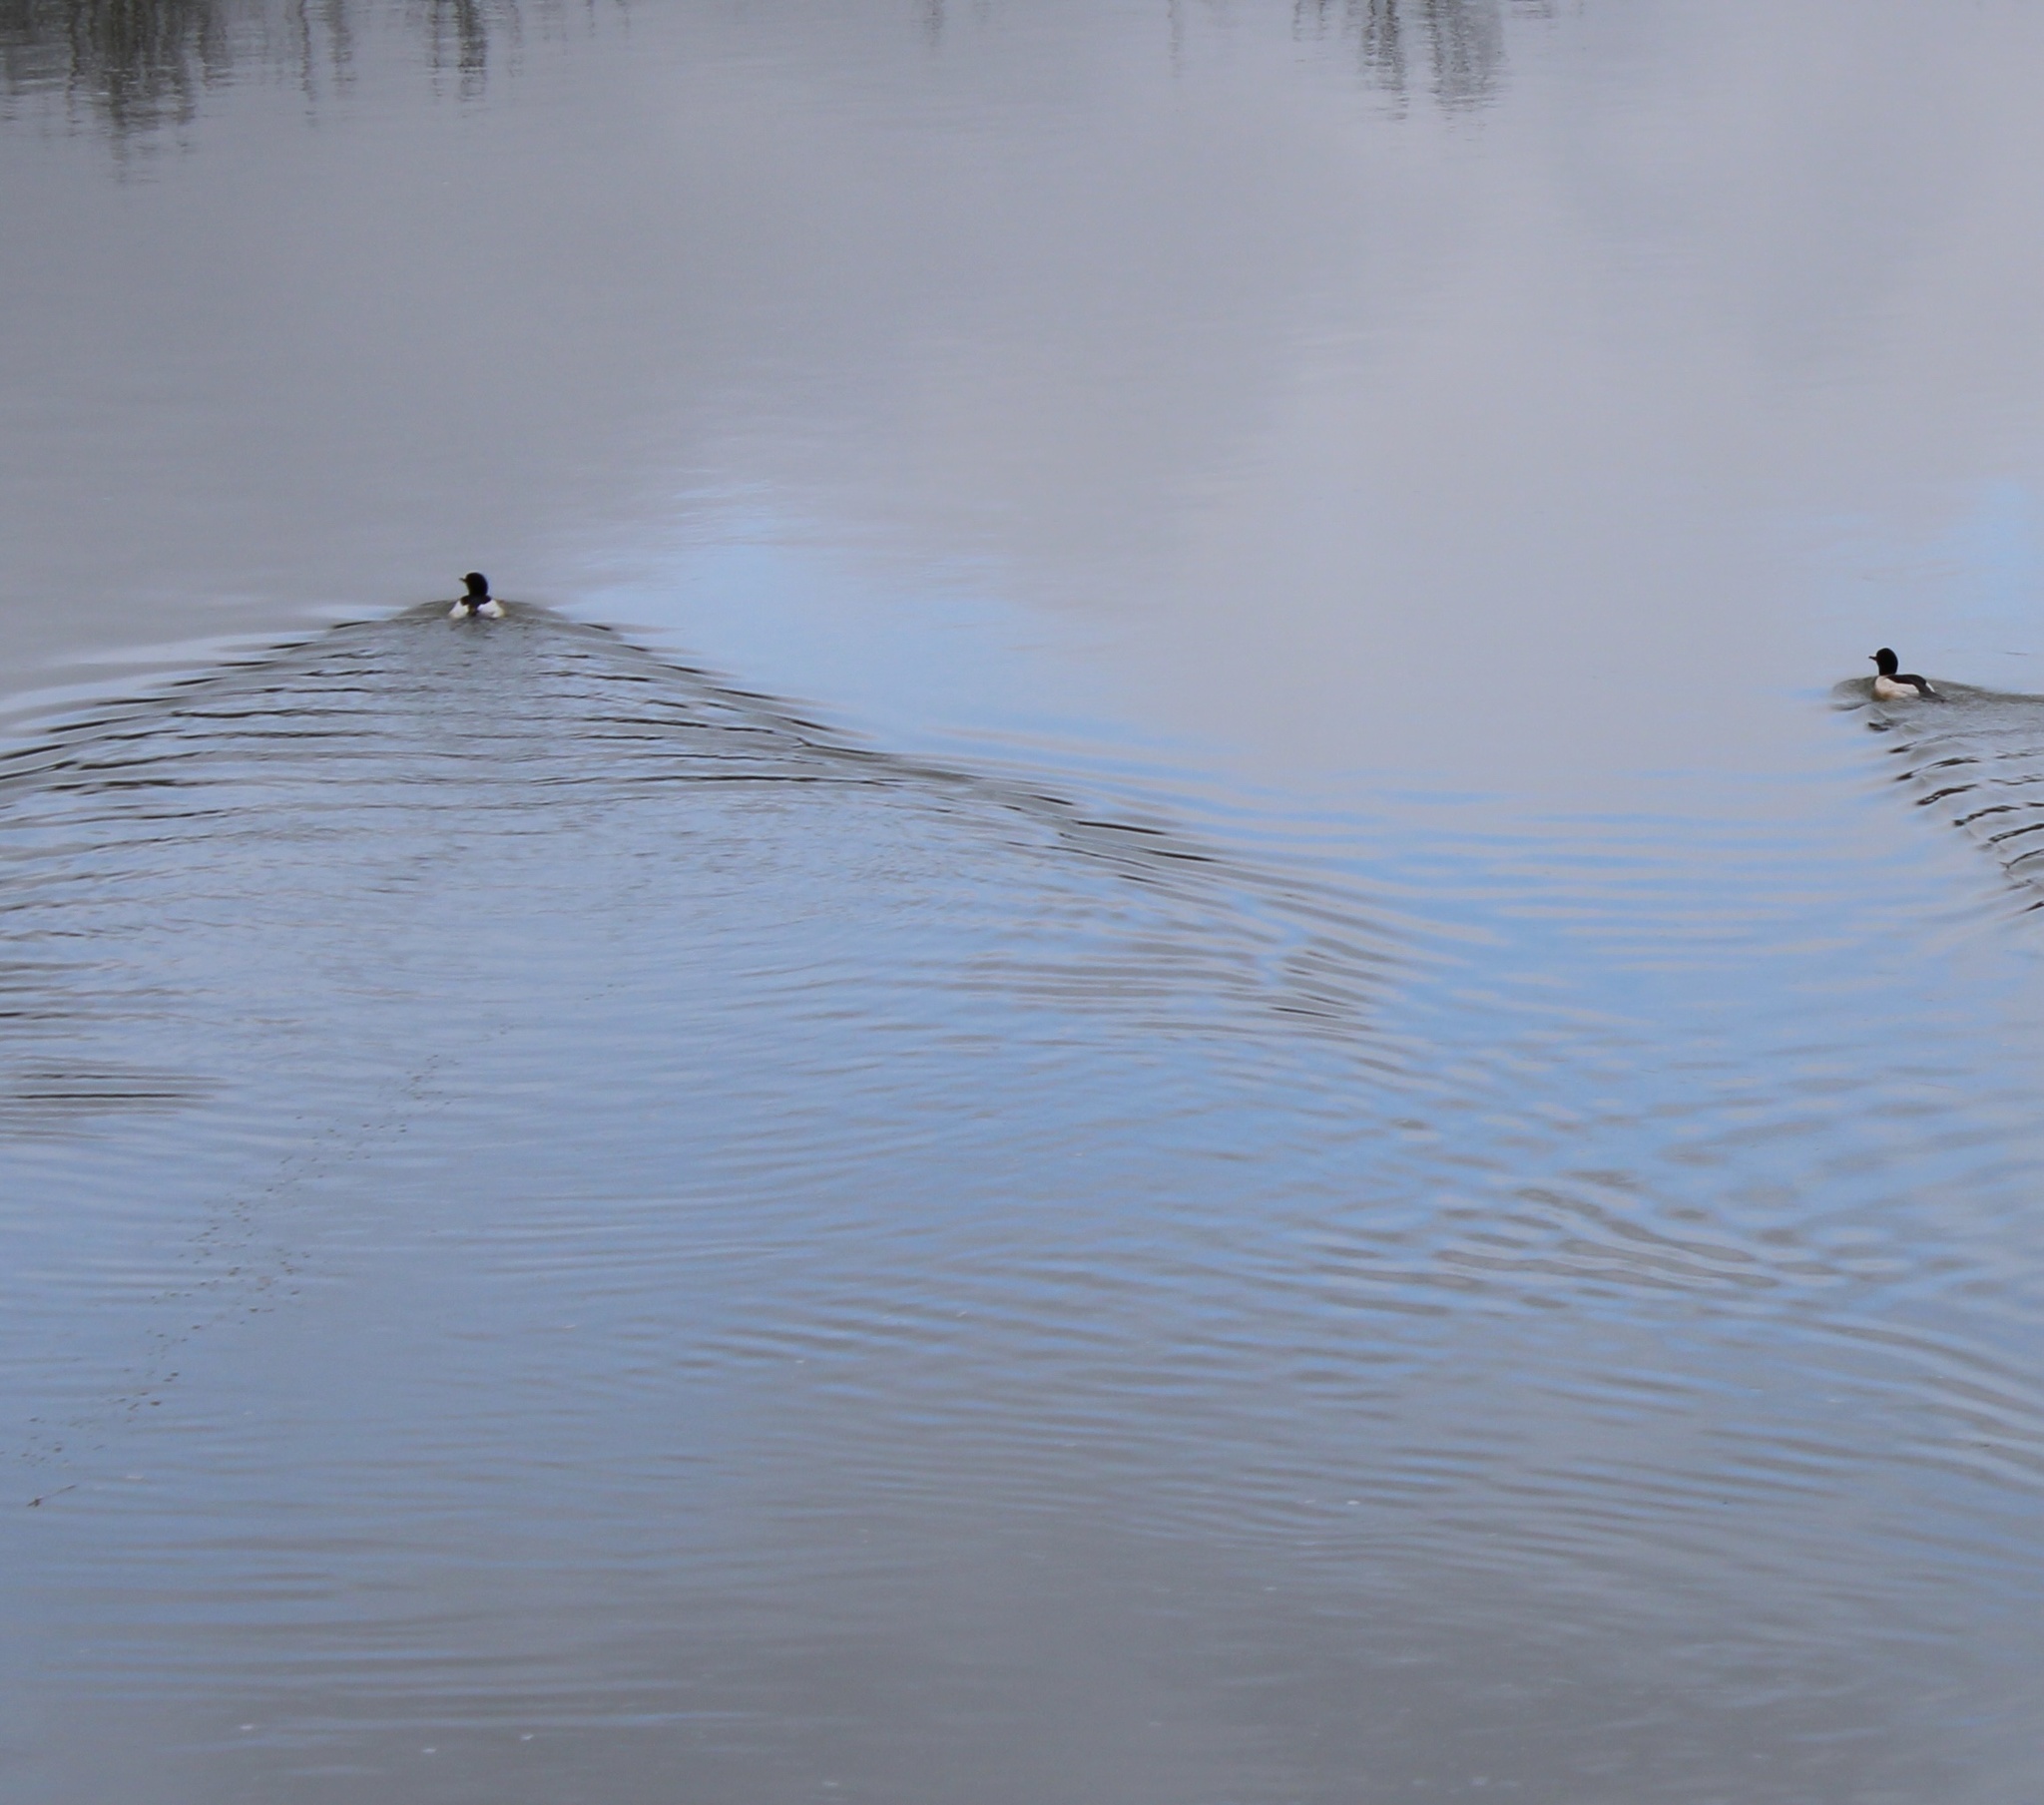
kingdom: Animalia
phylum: Chordata
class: Aves
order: Anseriformes
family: Anatidae
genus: Mergus
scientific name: Mergus merganser
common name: Common merganser
